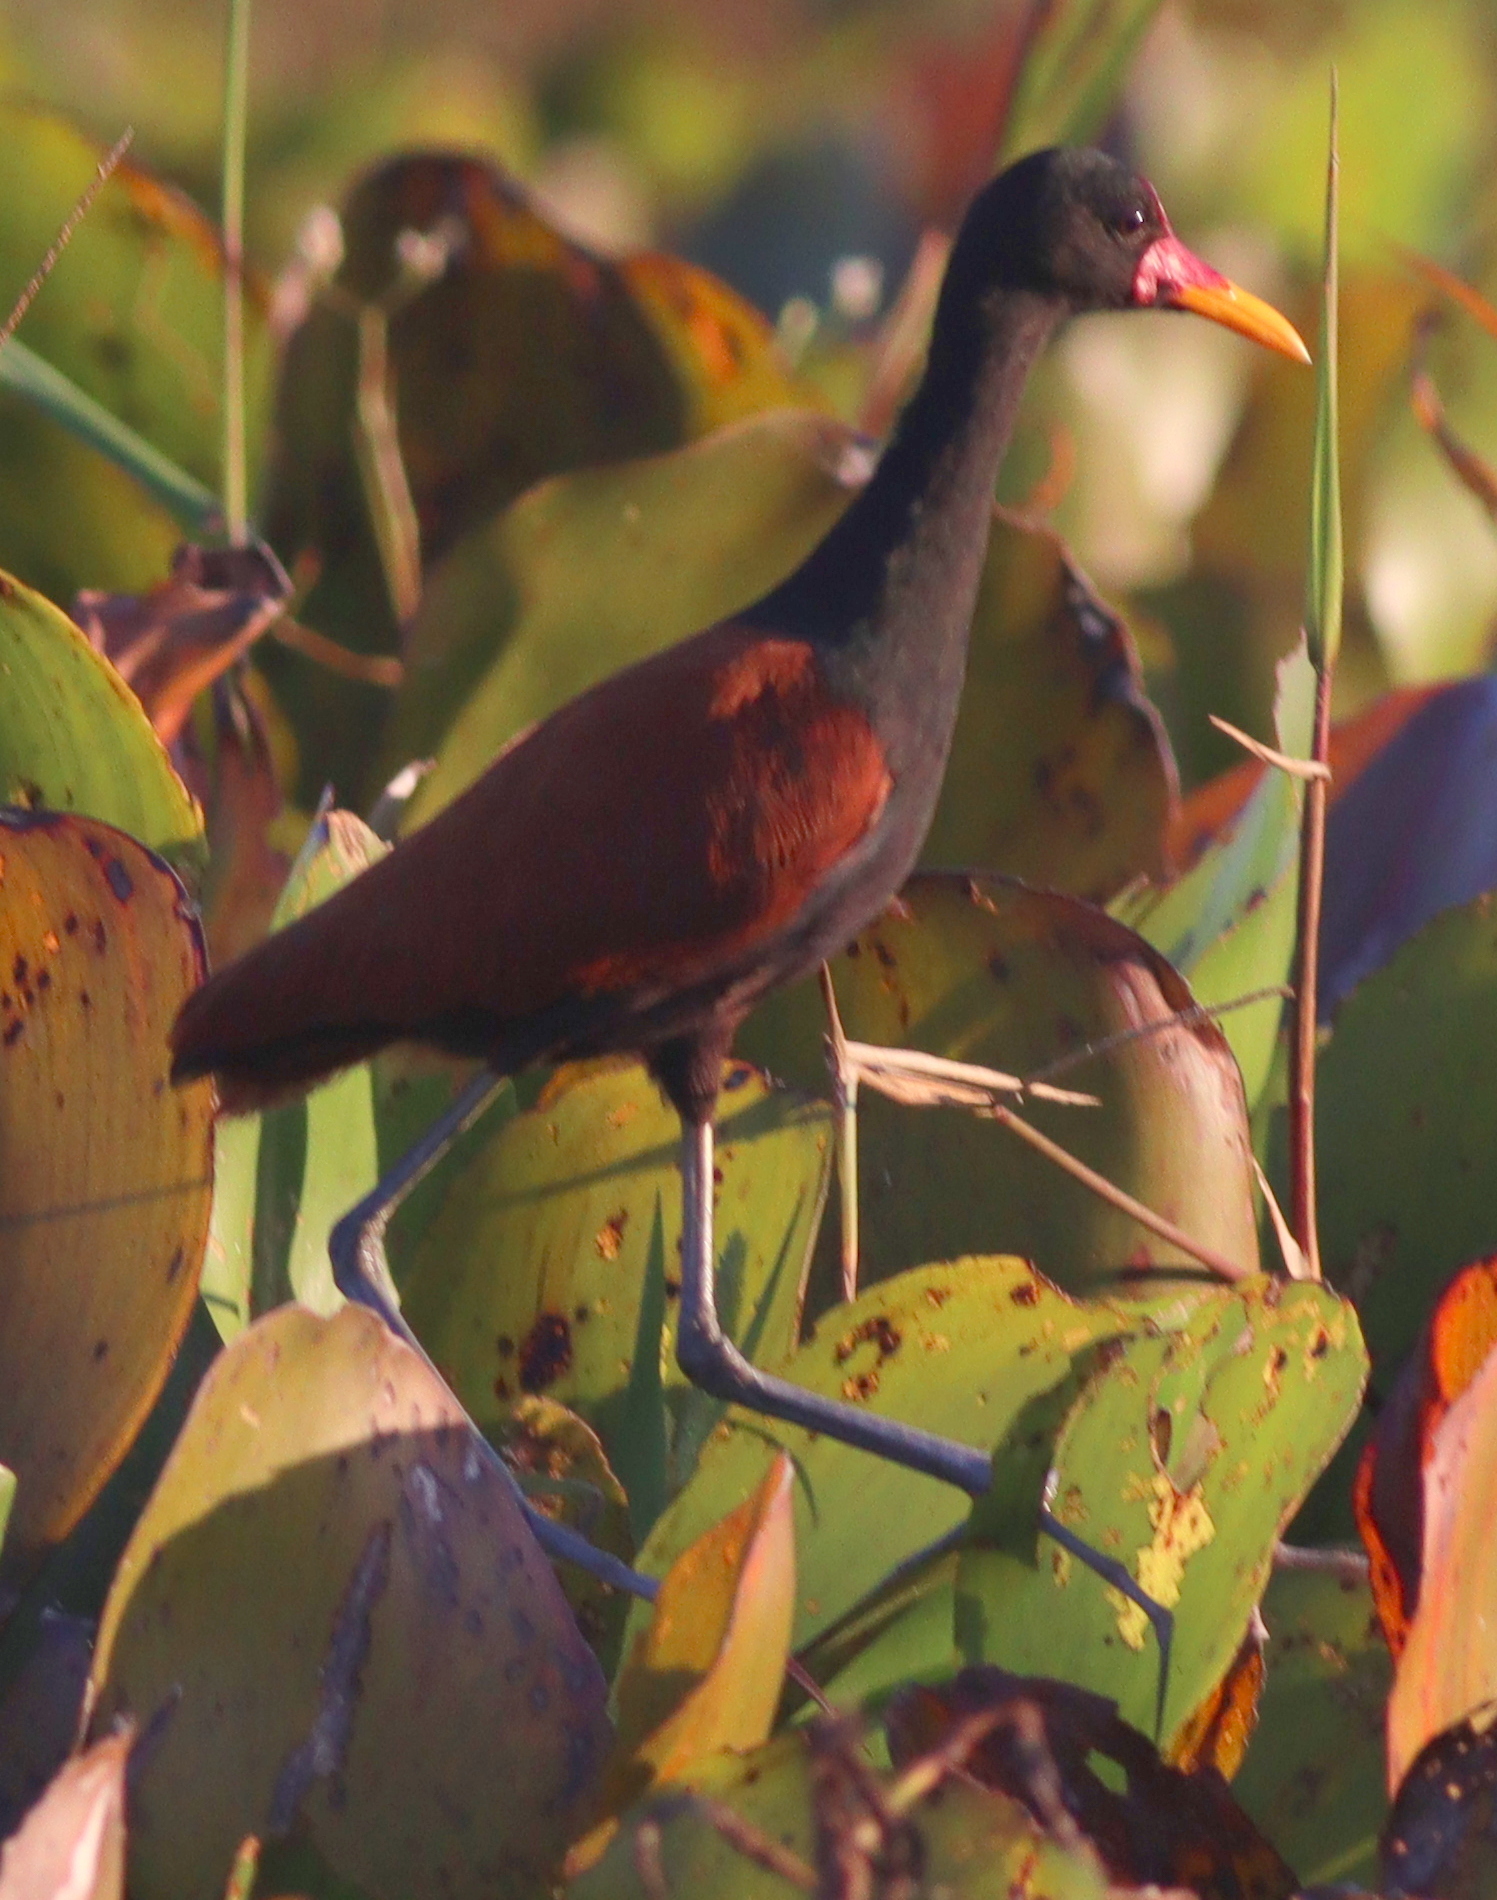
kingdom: Animalia
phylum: Chordata
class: Aves
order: Charadriiformes
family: Jacanidae
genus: Jacana
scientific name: Jacana jacana
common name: Wattled jacana
